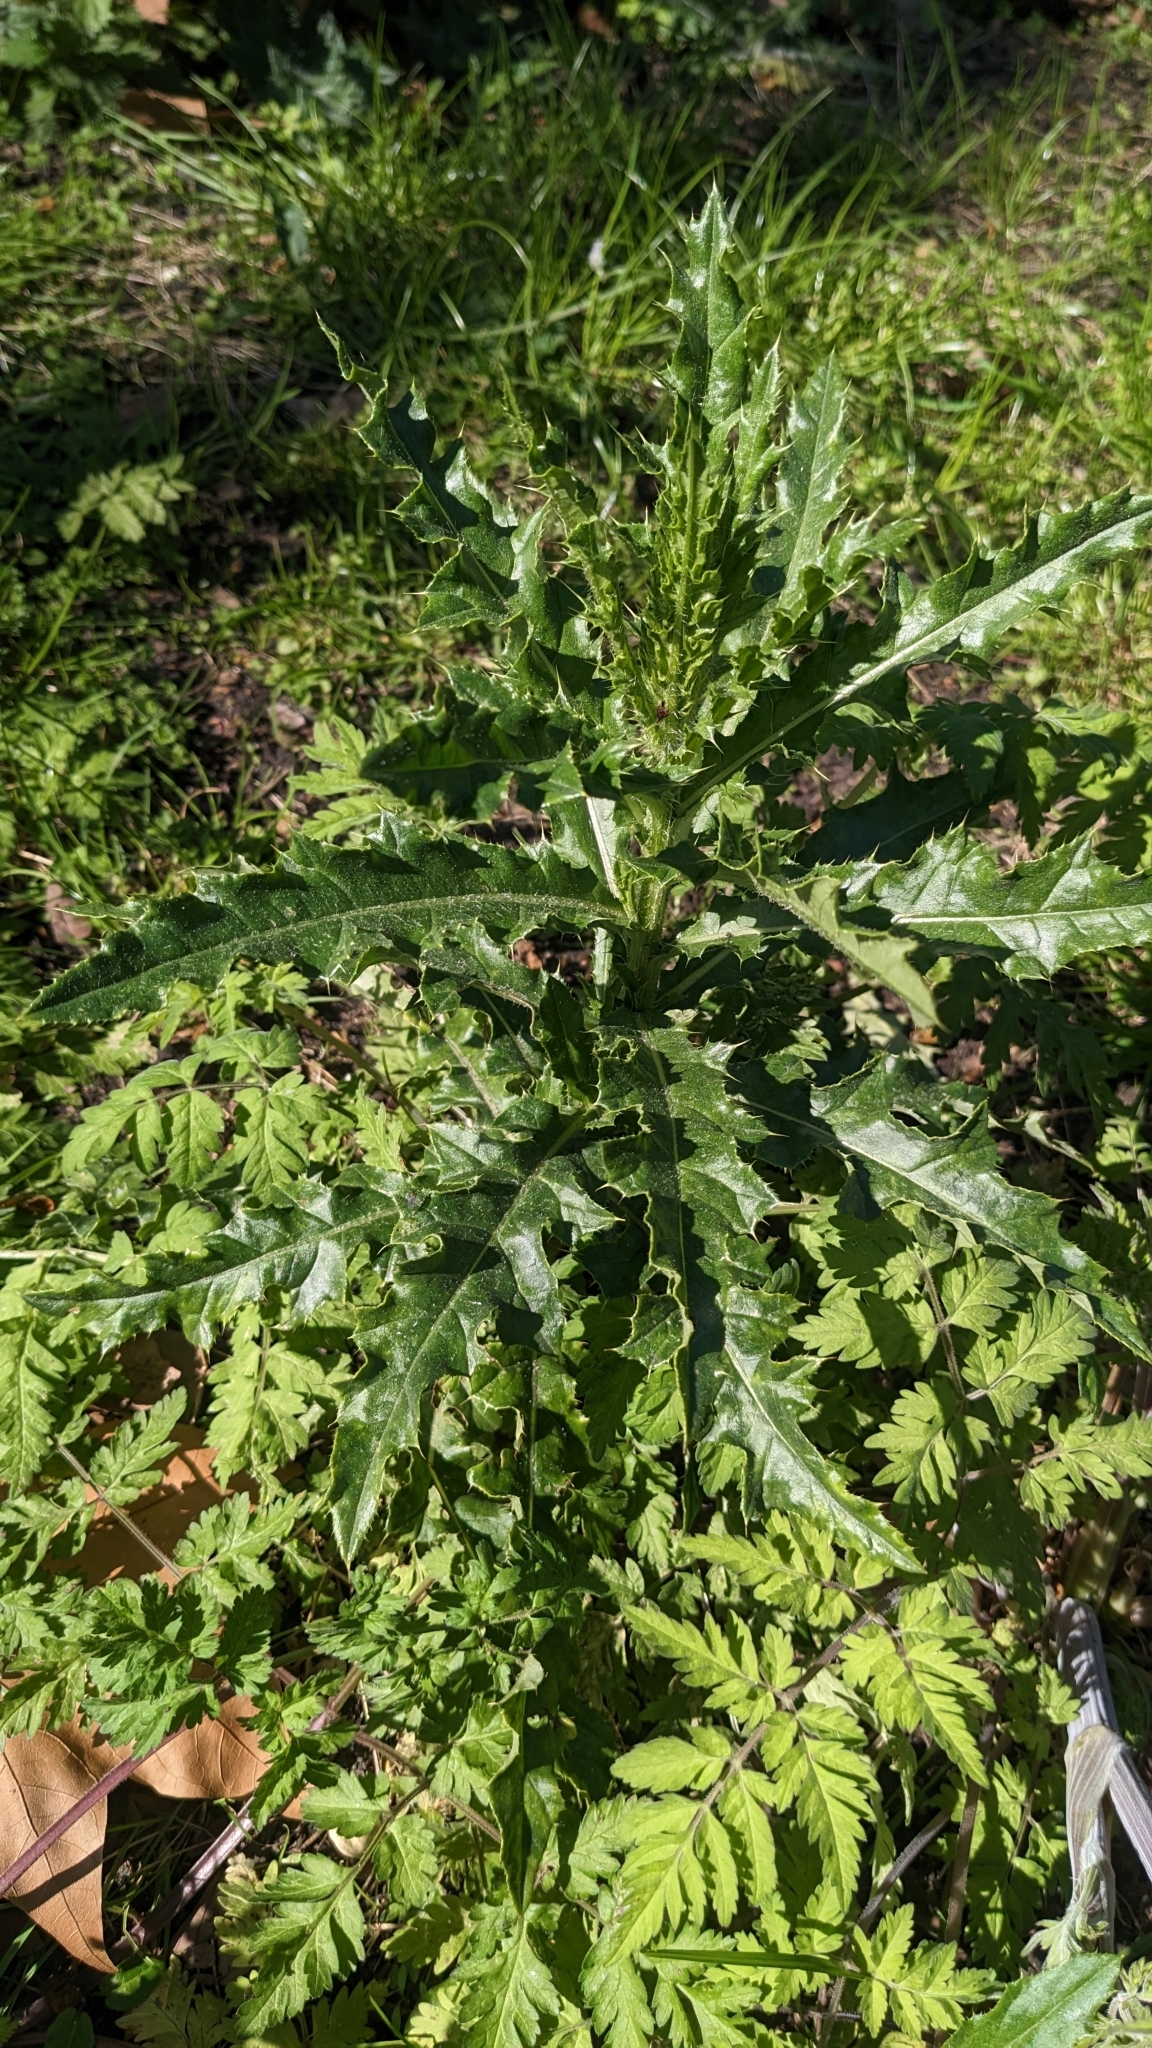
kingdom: Plantae
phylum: Tracheophyta
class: Magnoliopsida
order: Asterales
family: Asteraceae
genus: Cirsium
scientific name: Cirsium arvense
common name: Creeping thistle
